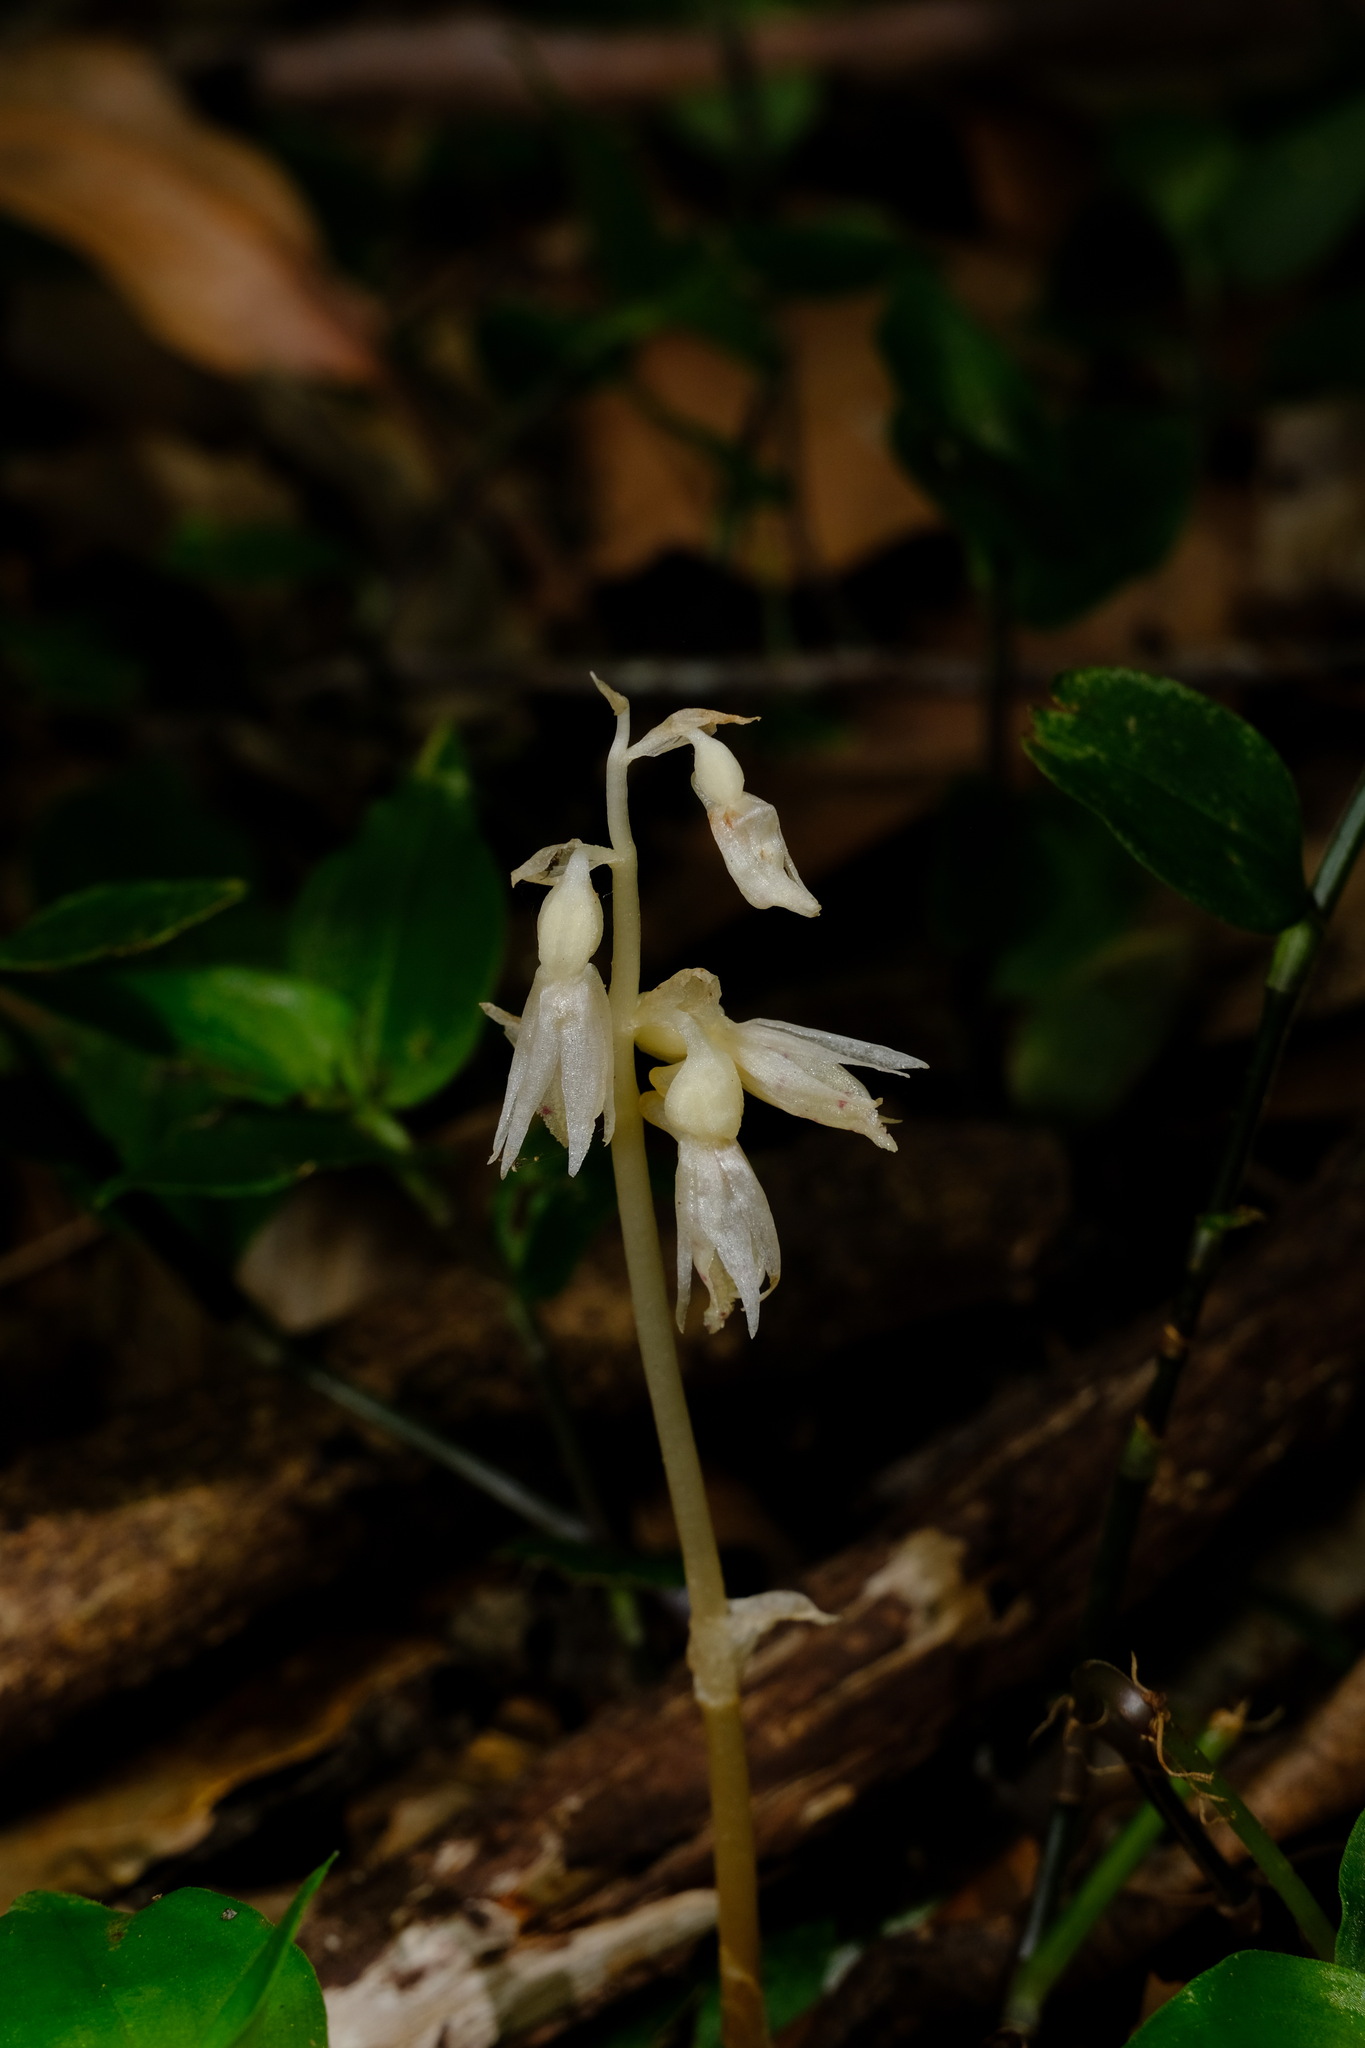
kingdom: Plantae
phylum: Tracheophyta
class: Liliopsida
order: Asparagales
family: Orchidaceae
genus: Epipogium
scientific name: Epipogium roseum
